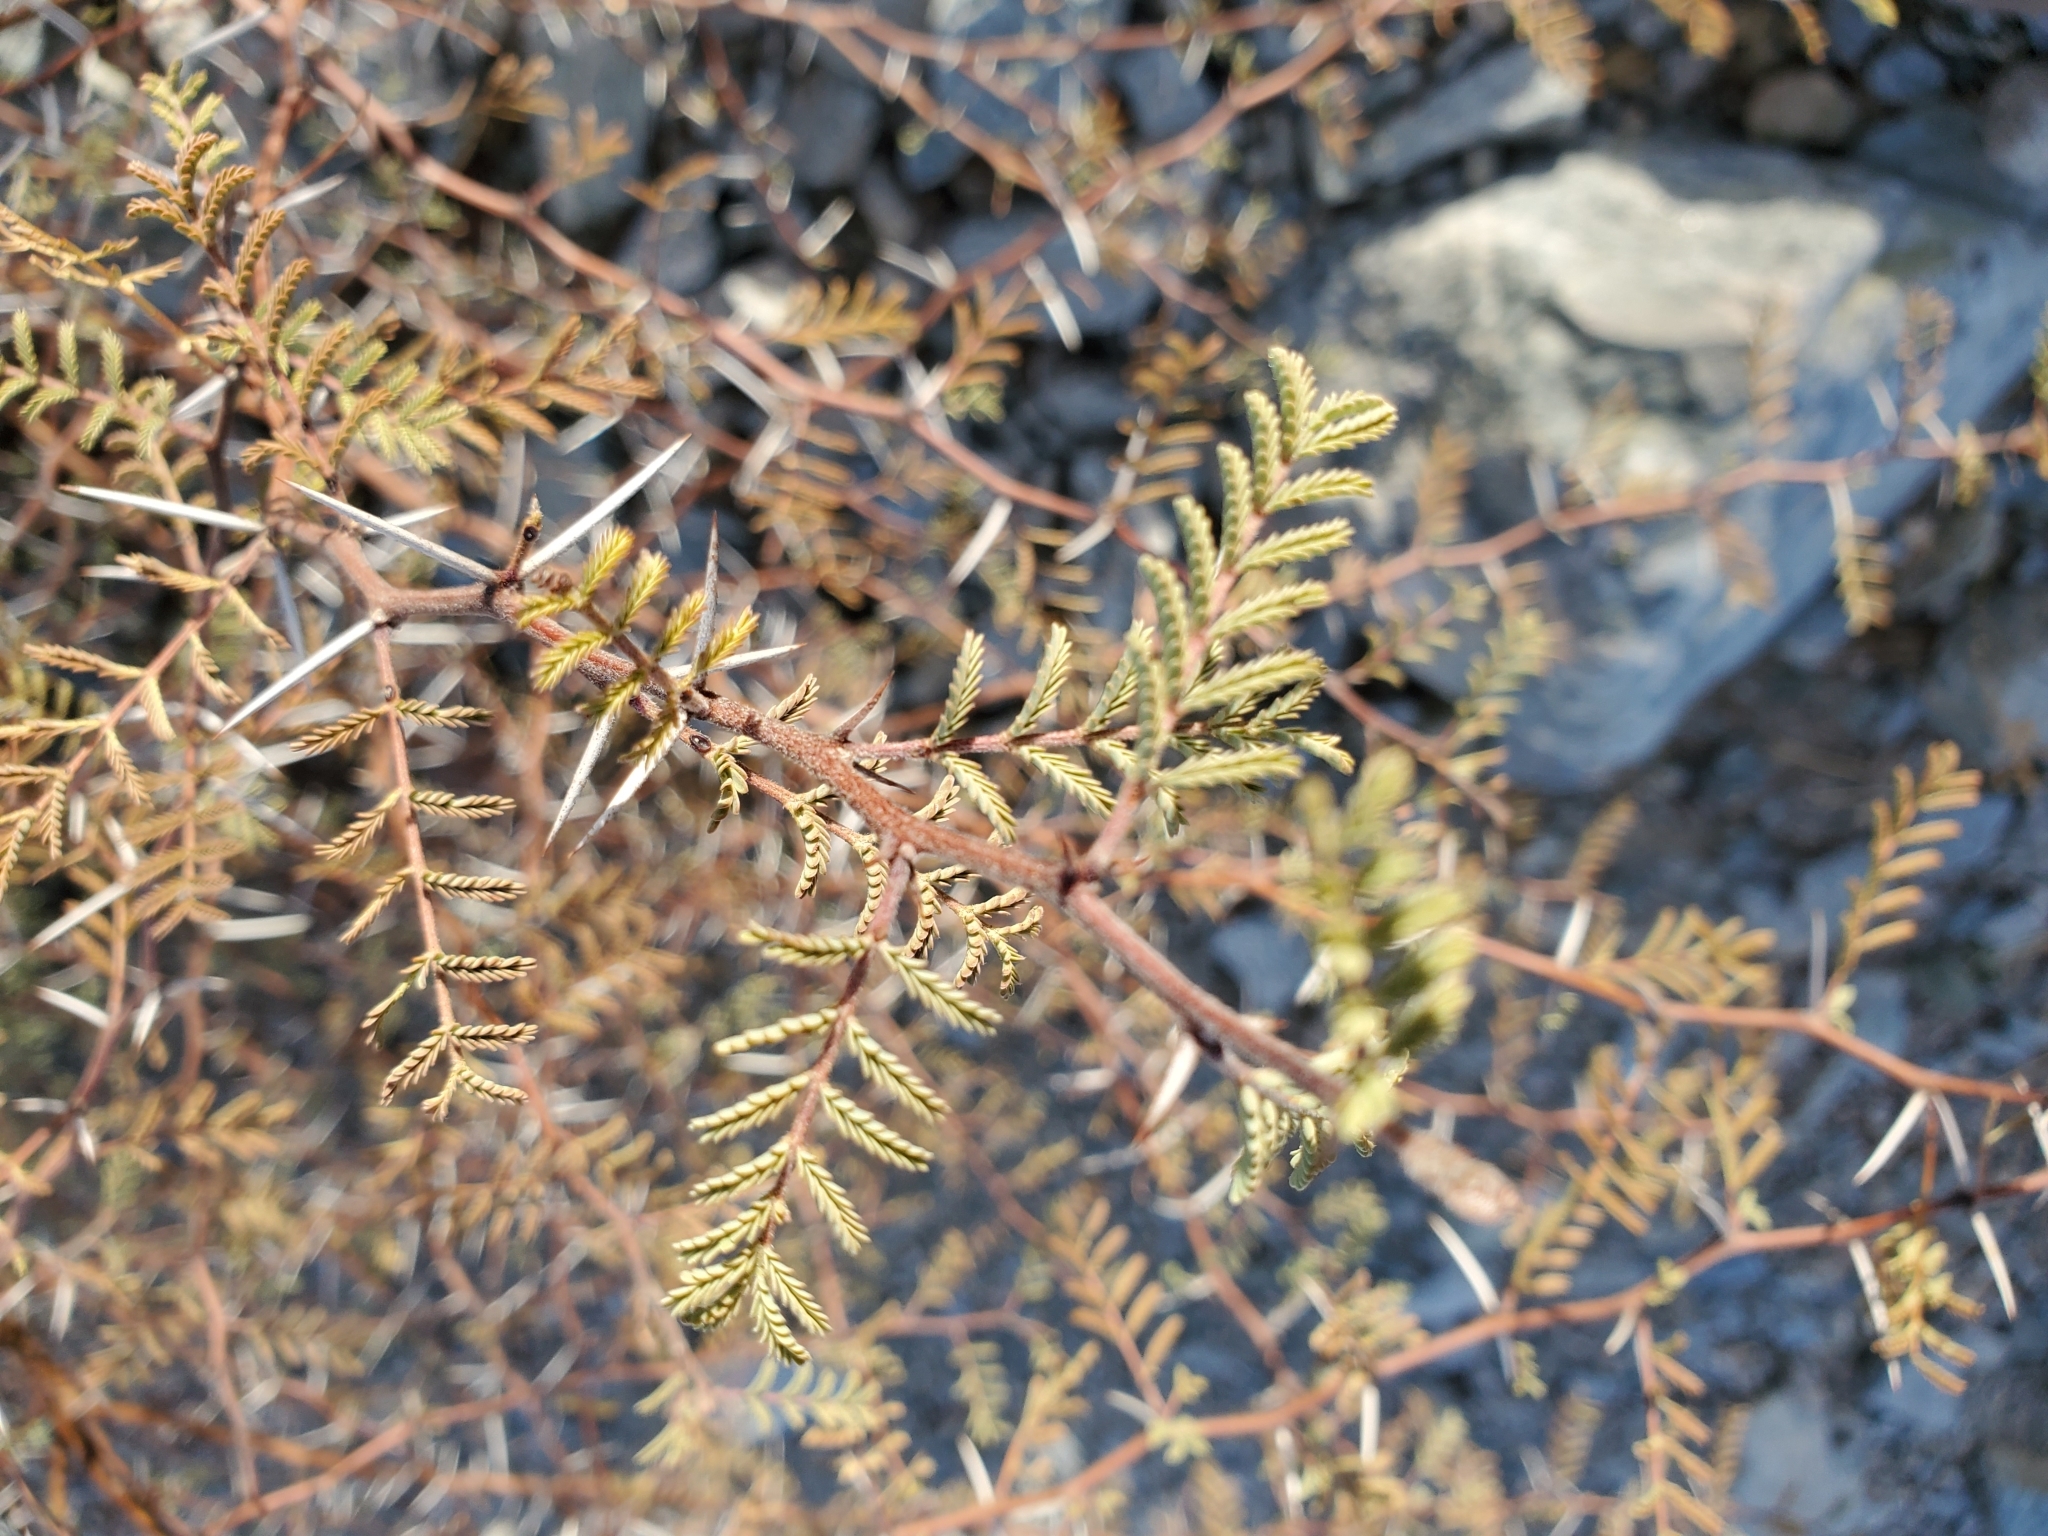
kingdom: Plantae
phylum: Tracheophyta
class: Magnoliopsida
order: Fabales
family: Fabaceae
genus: Vachellia
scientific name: Vachellia constricta
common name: Mescat acacia
